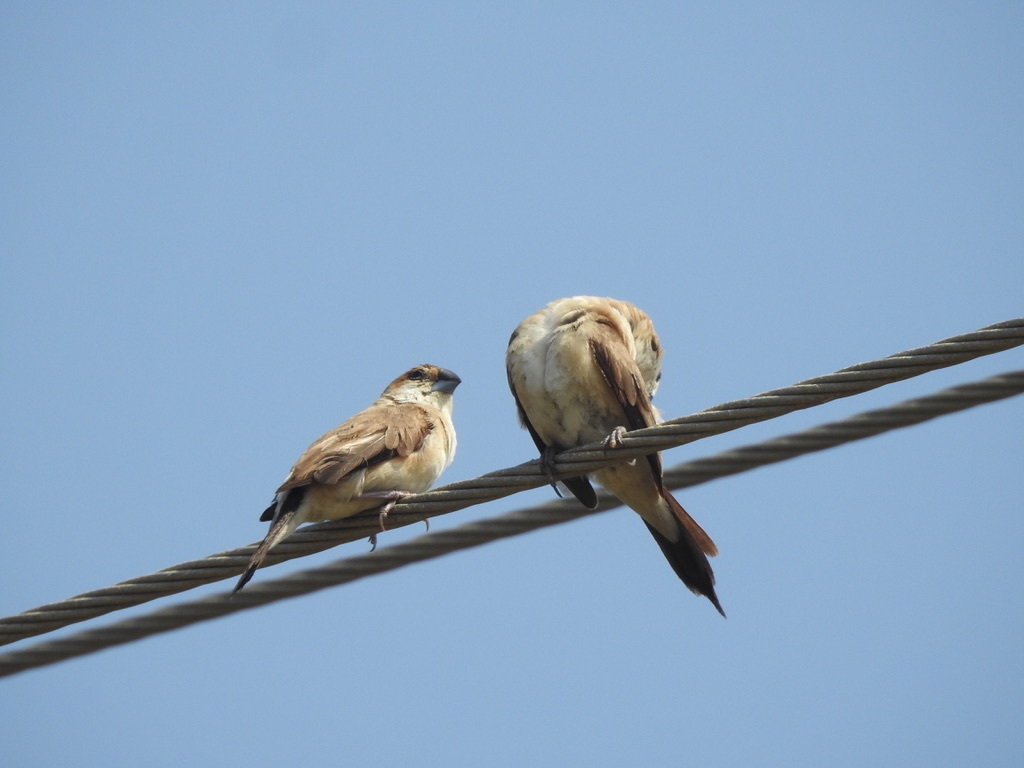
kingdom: Animalia
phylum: Chordata
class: Aves
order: Passeriformes
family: Estrildidae
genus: Euodice
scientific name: Euodice malabarica
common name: Indian silverbill
